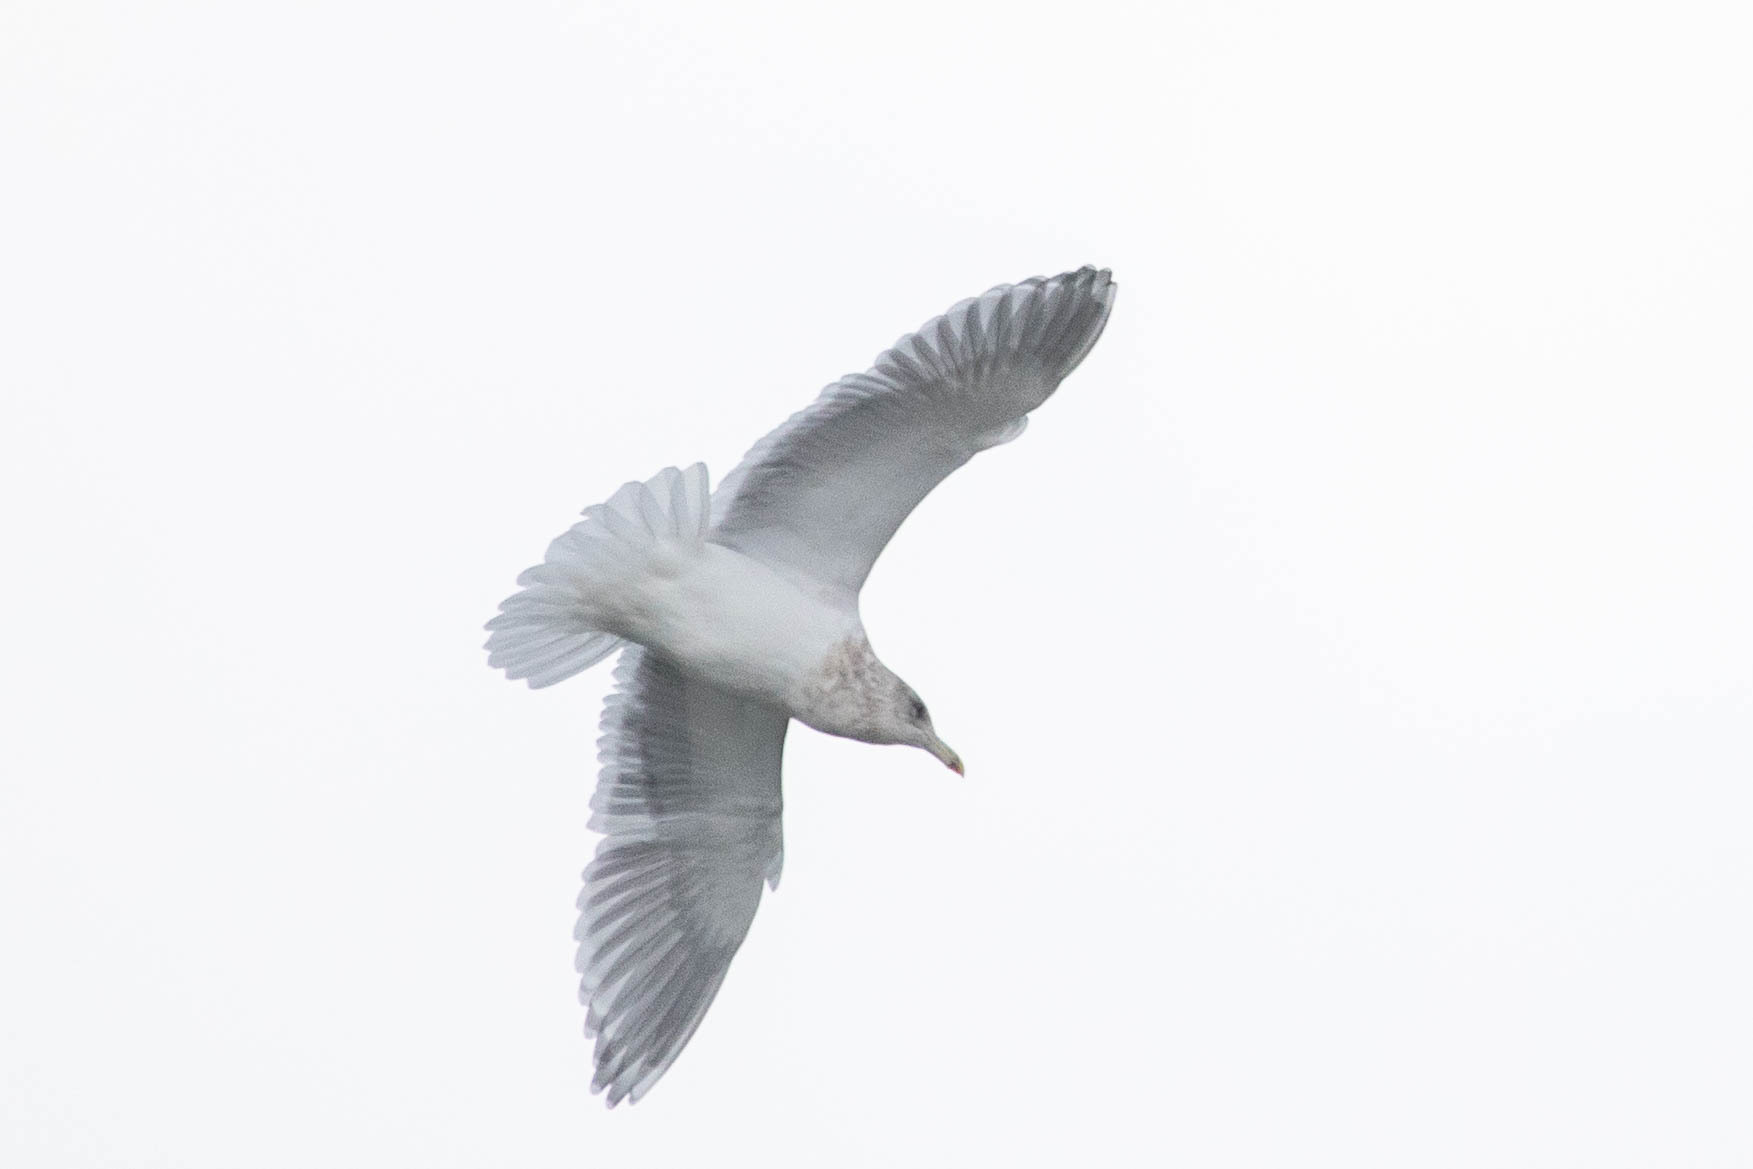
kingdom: Animalia
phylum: Chordata
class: Aves
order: Charadriiformes
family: Laridae
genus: Larus
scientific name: Larus glaucescens
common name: Glaucous-winged gull
